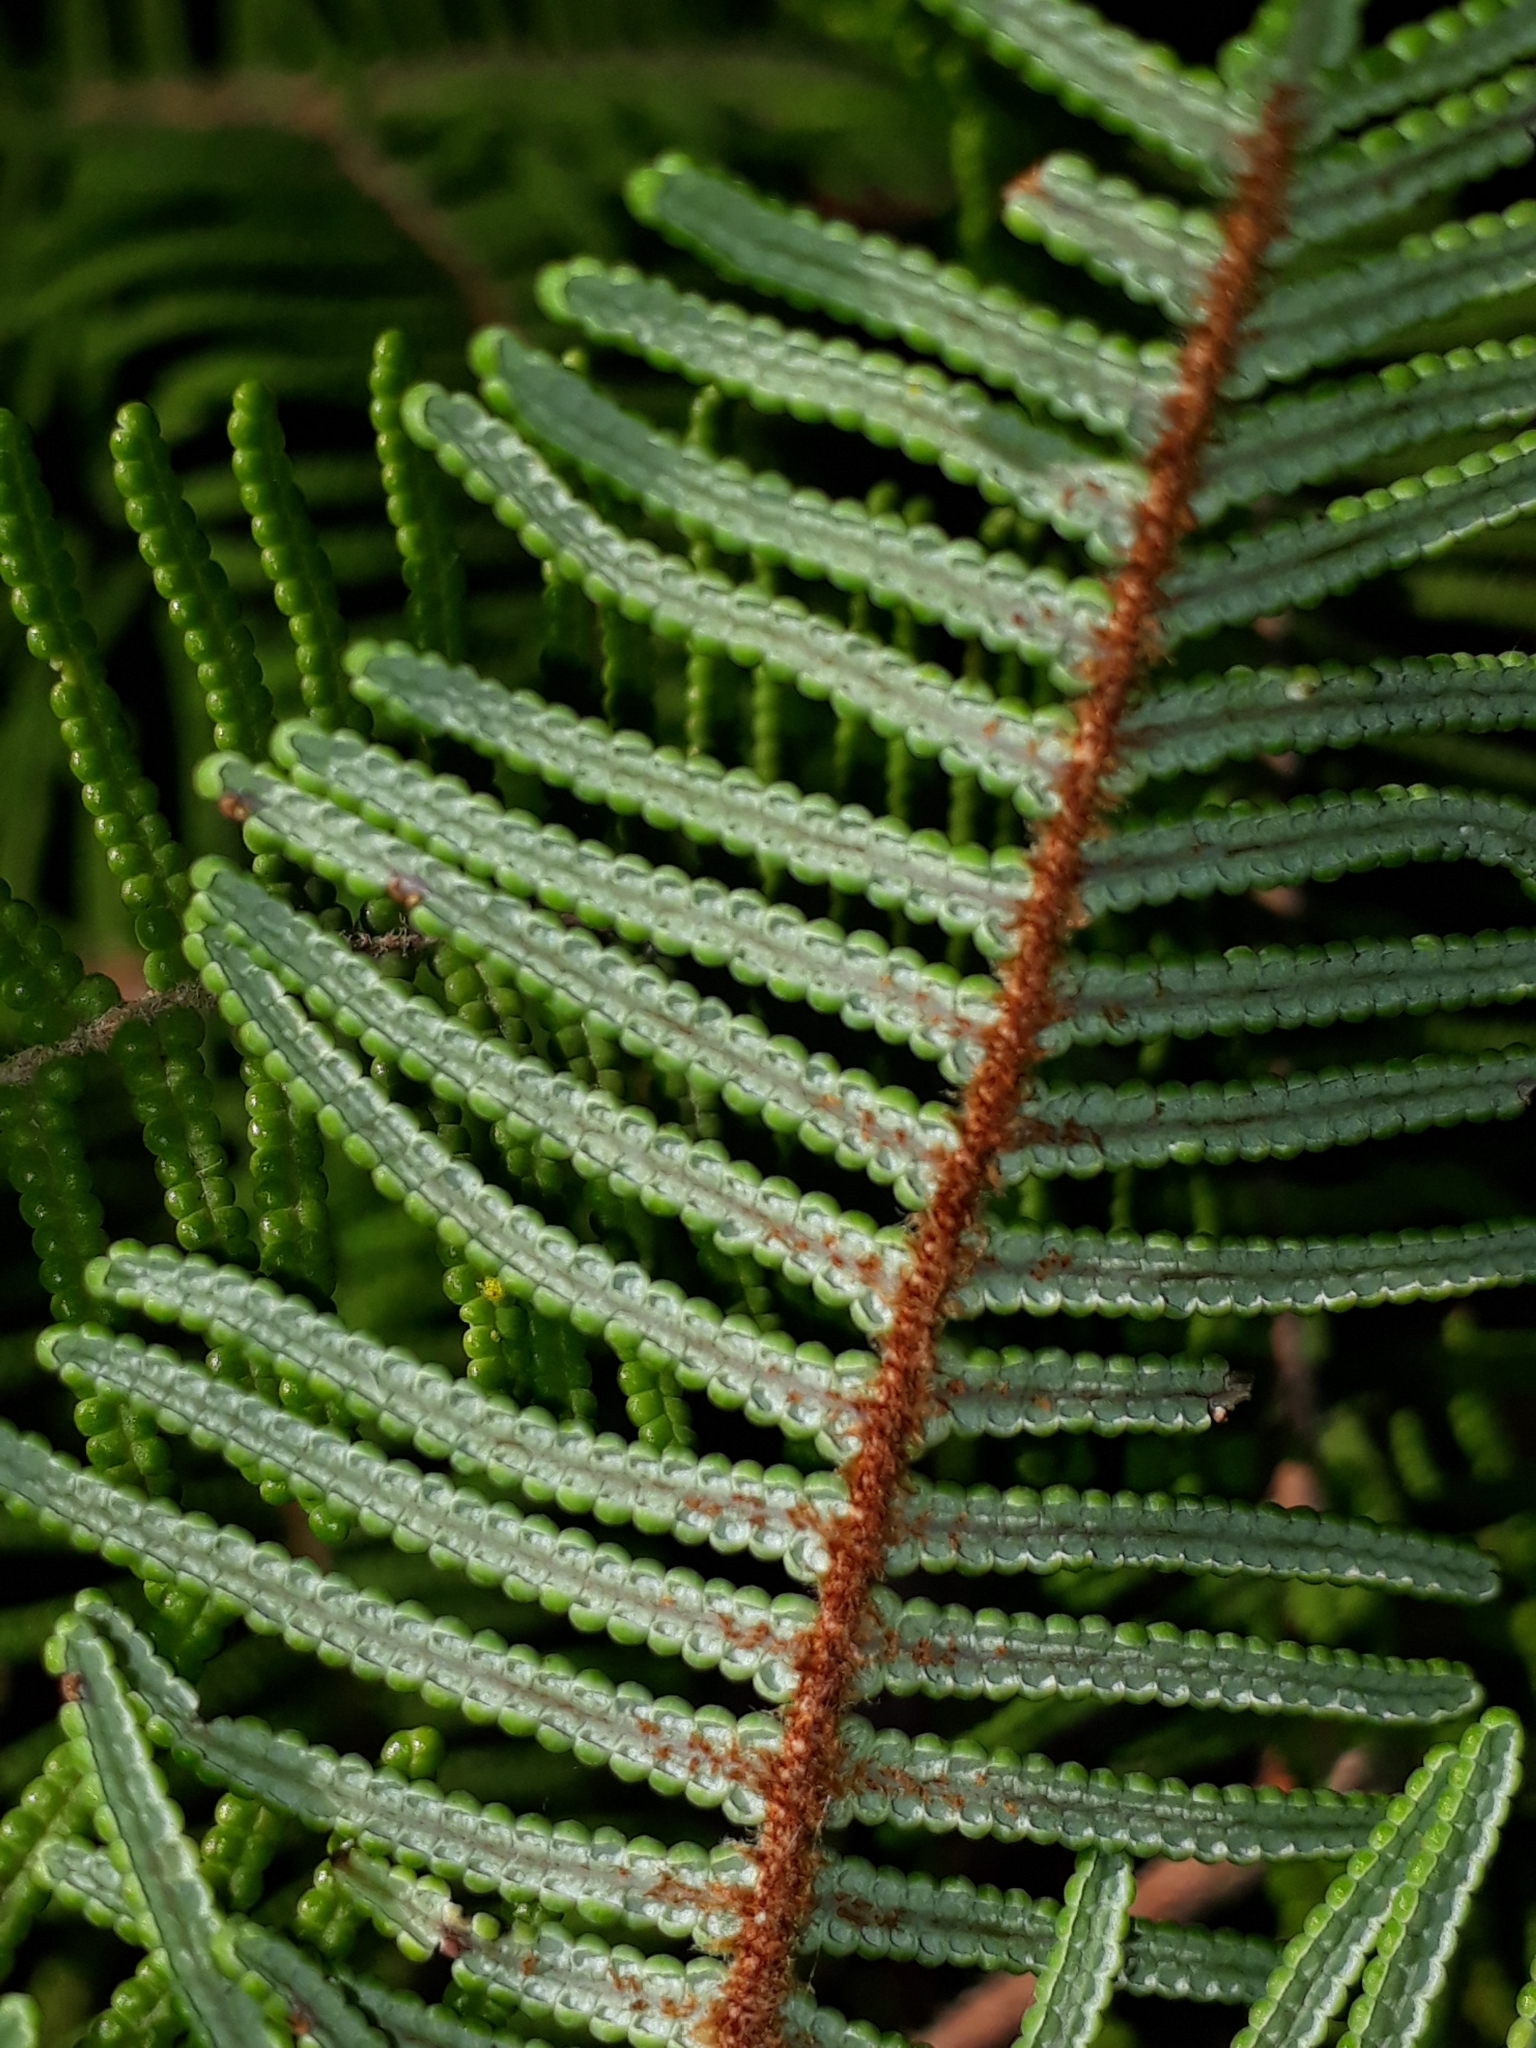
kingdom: Plantae
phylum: Tracheophyta
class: Polypodiopsida
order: Gleicheniales
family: Gleicheniaceae
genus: Gleichenia
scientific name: Gleichenia dicarpa
